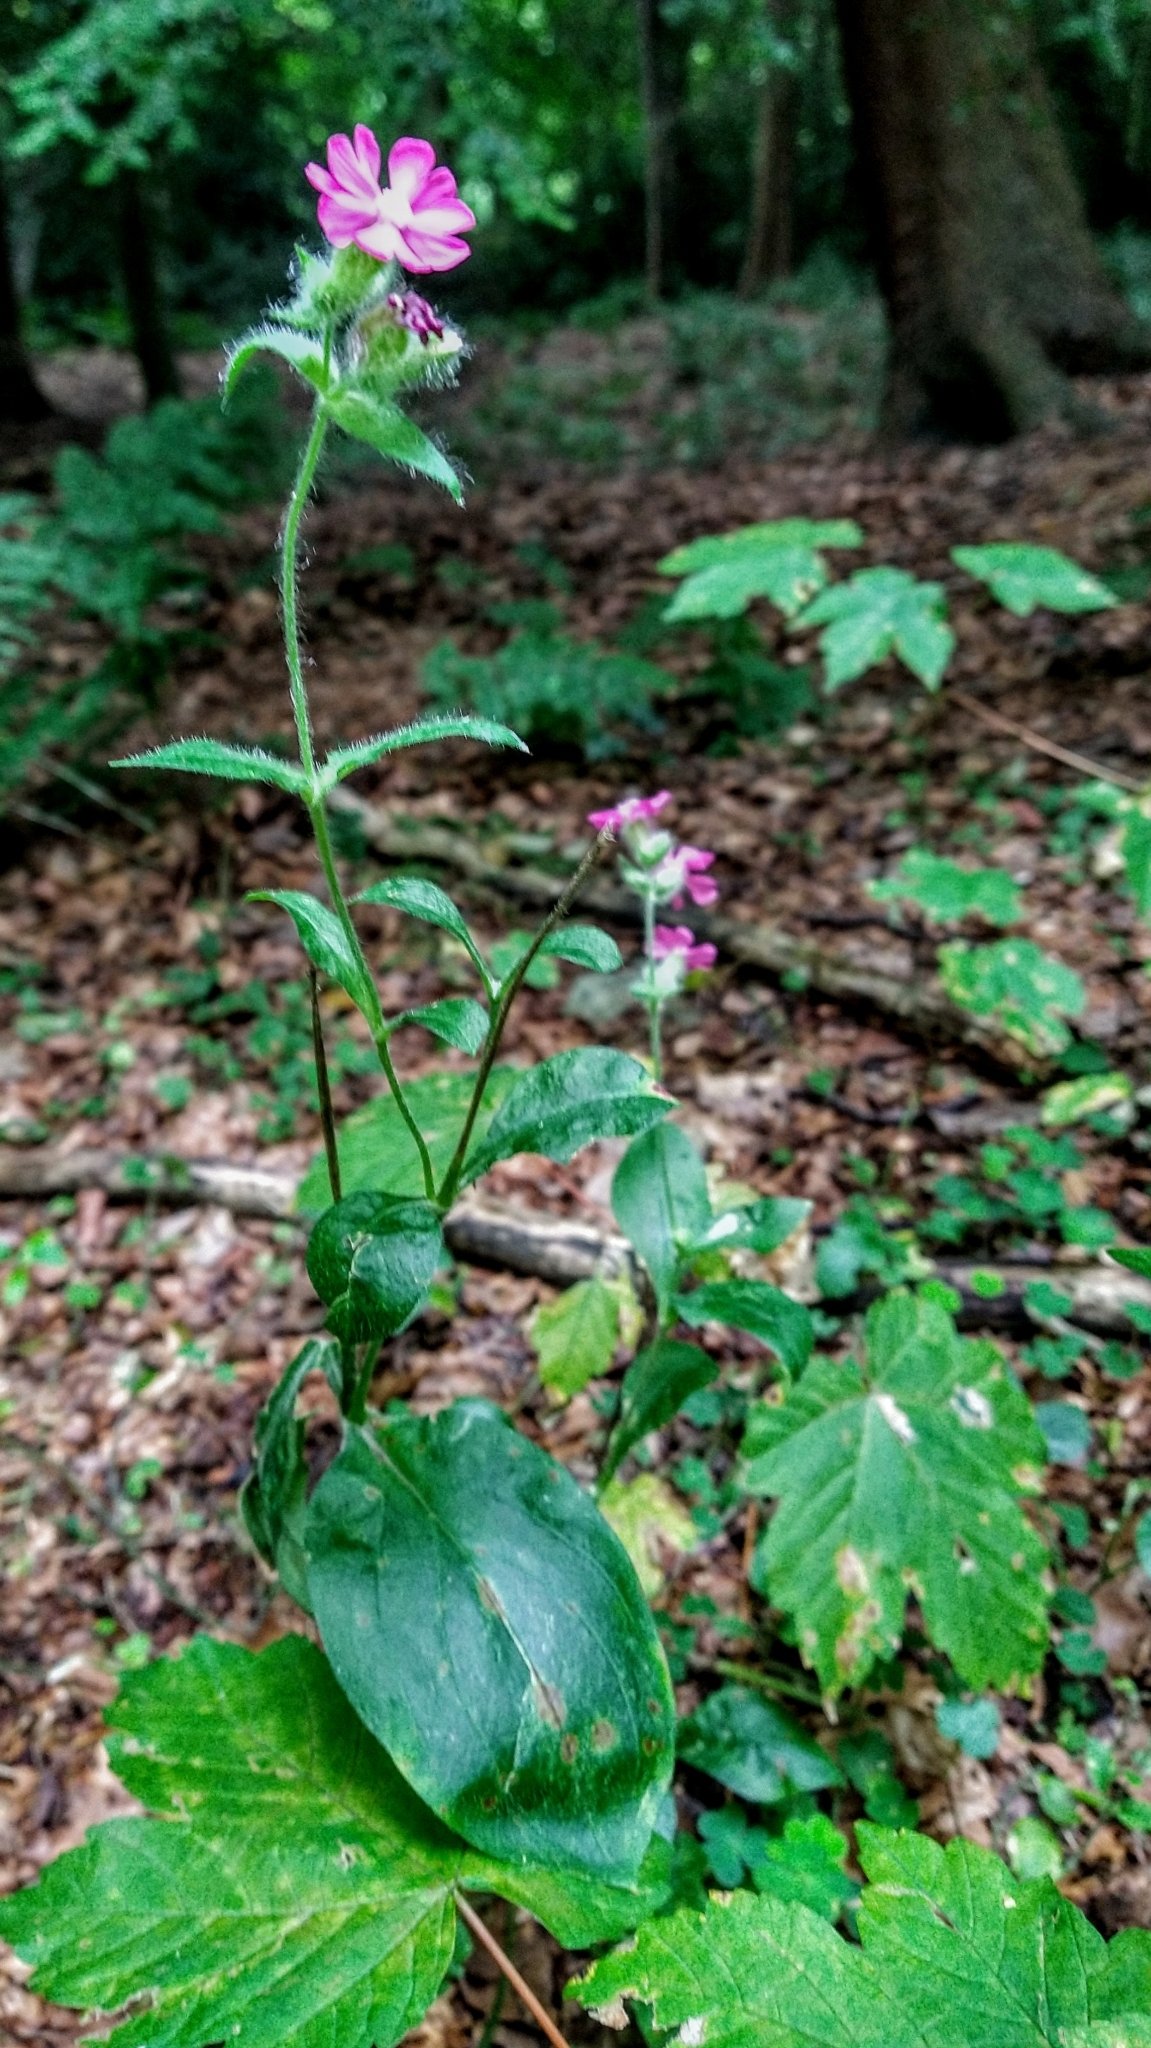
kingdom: Plantae
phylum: Tracheophyta
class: Magnoliopsida
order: Caryophyllales
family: Caryophyllaceae
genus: Silene
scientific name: Silene dioica
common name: Red campion
